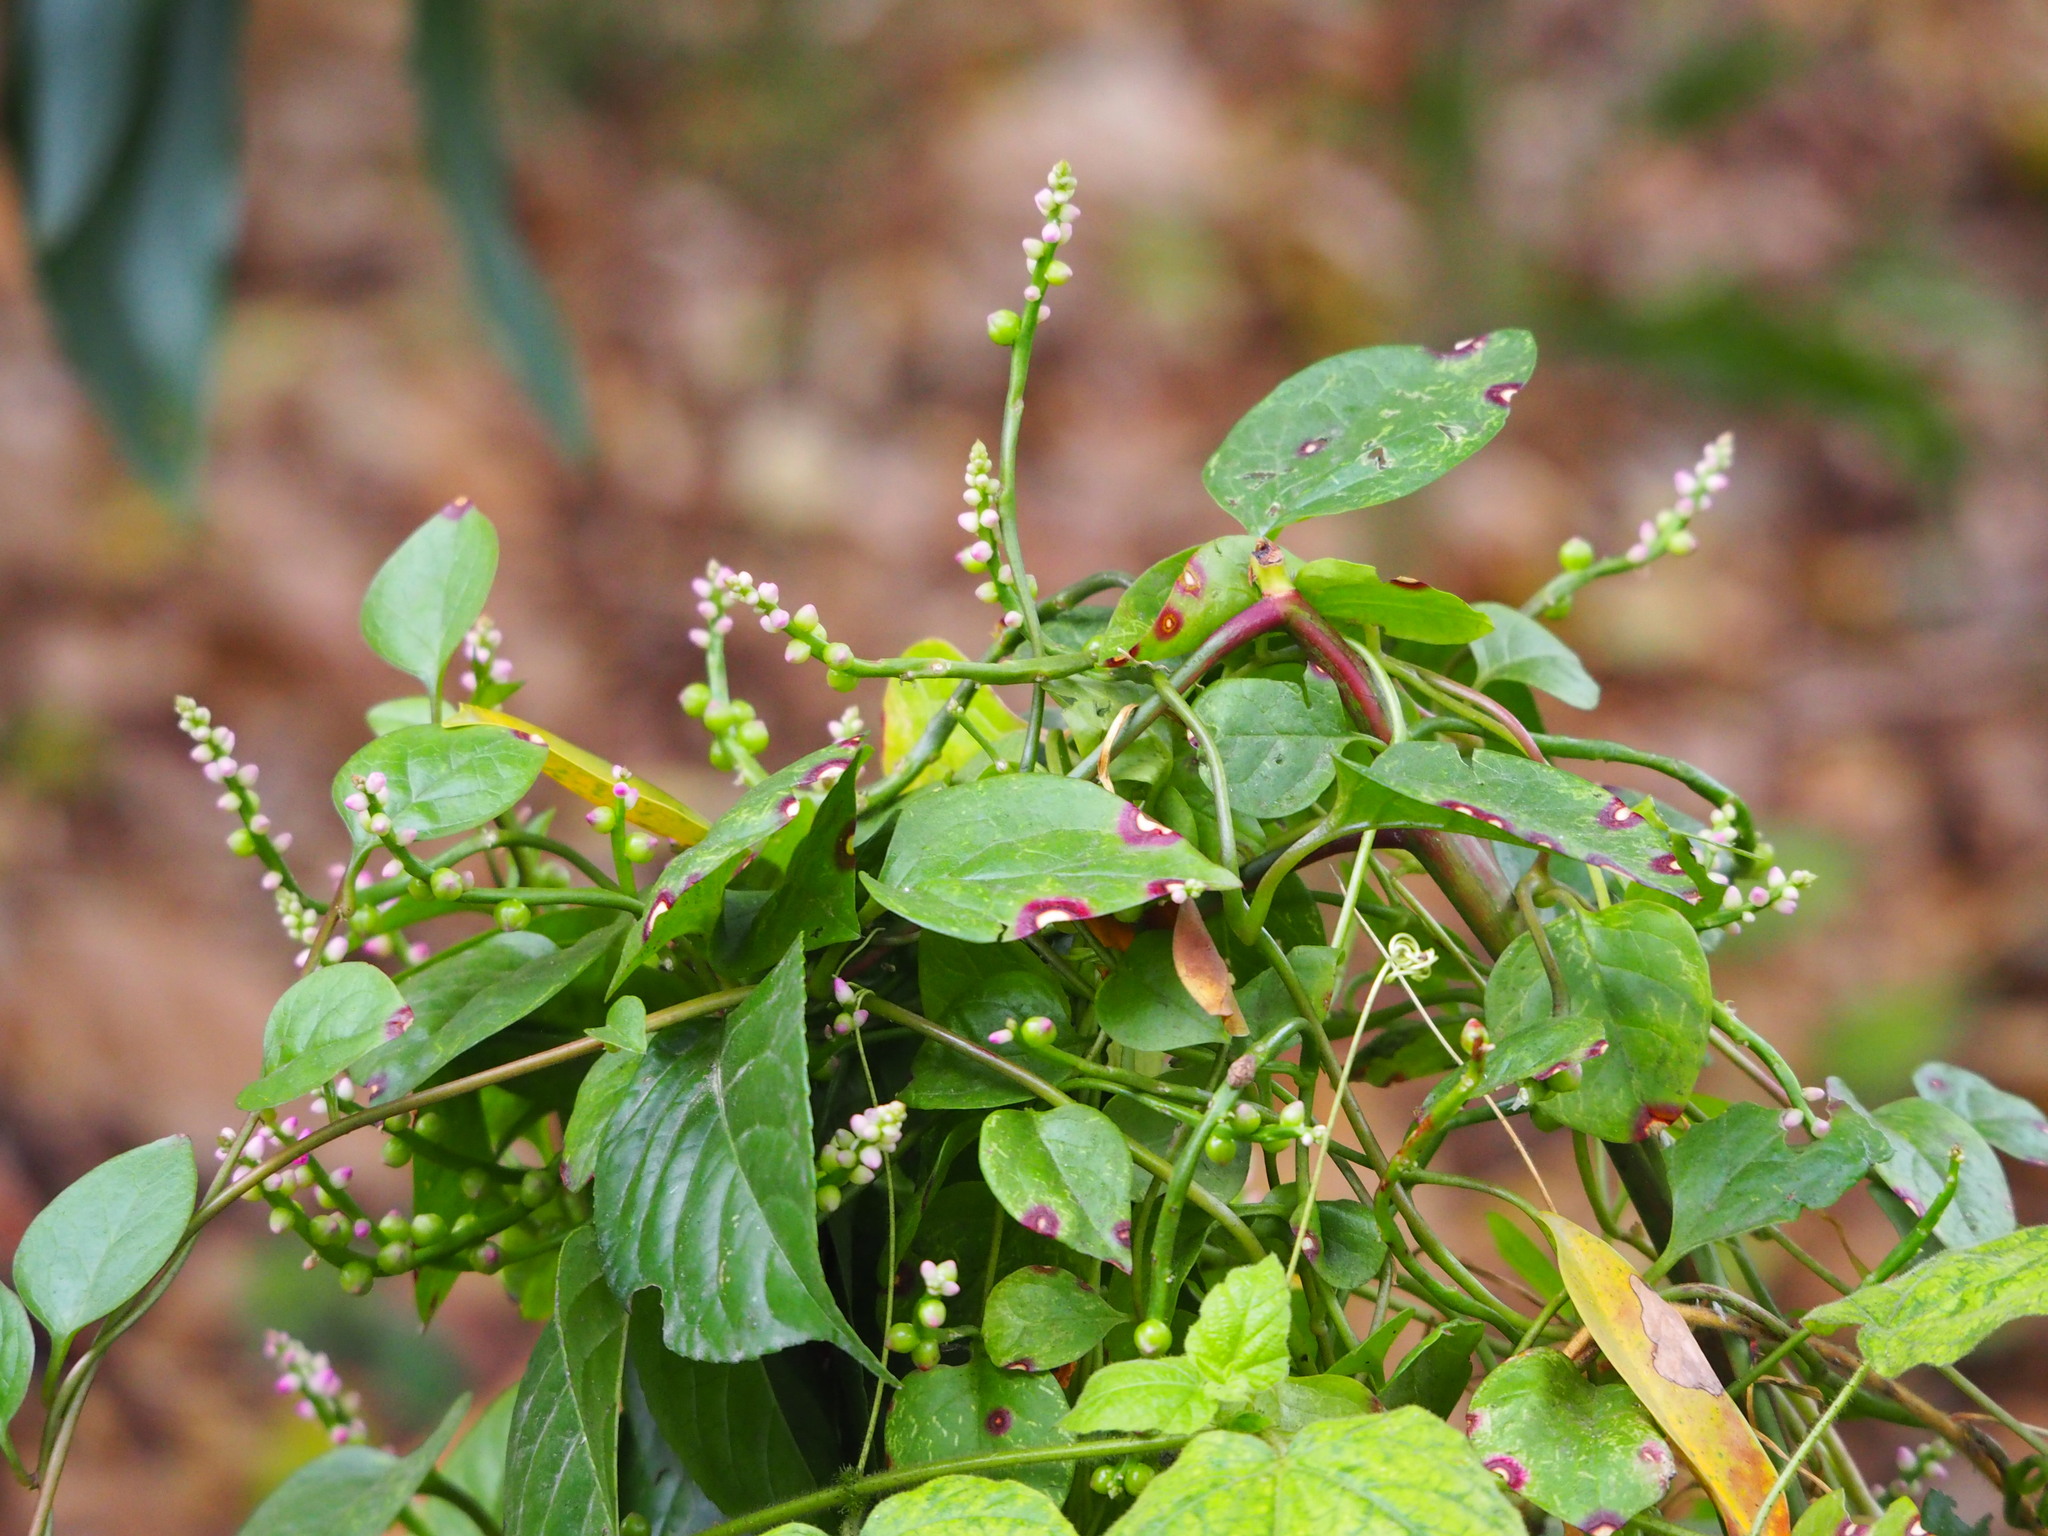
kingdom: Plantae
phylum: Tracheophyta
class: Magnoliopsida
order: Caryophyllales
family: Basellaceae
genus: Basella
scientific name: Basella alba
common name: Indian spinach
